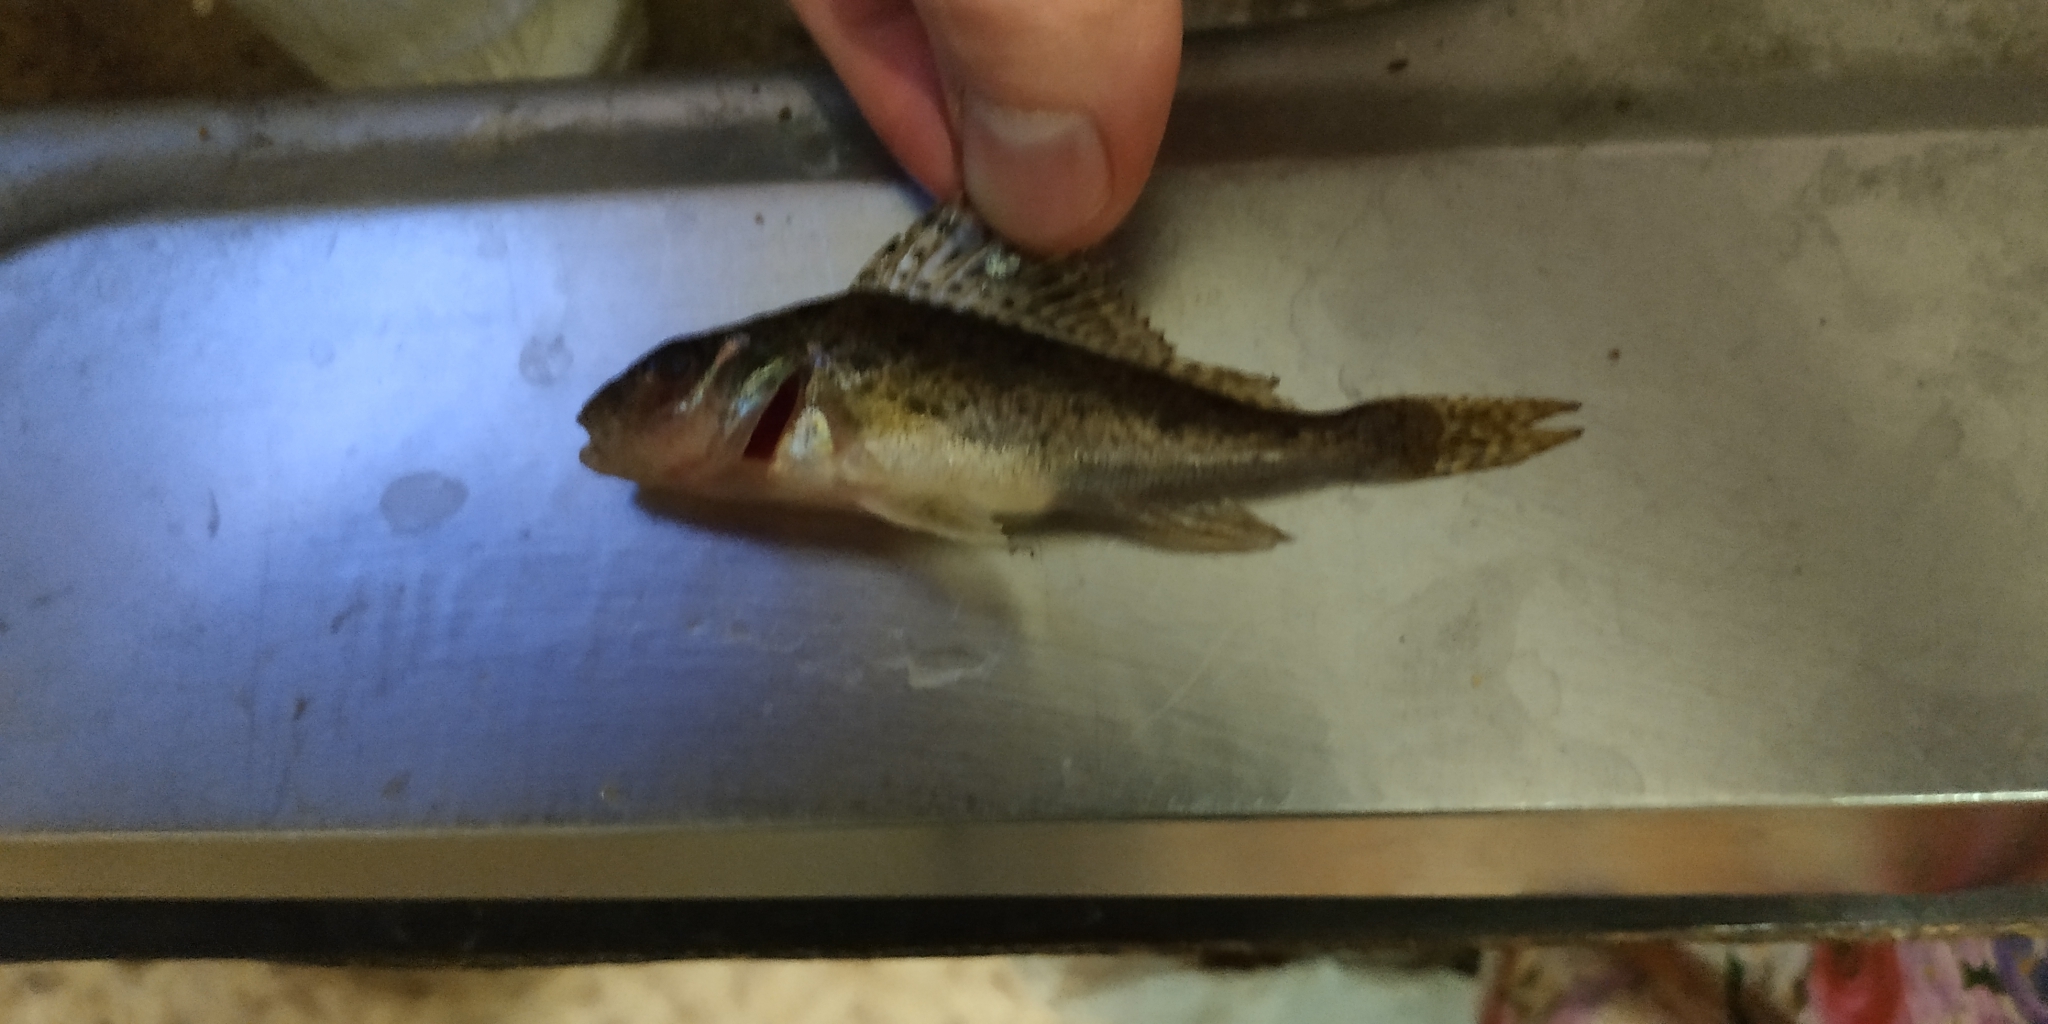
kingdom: Animalia
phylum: Chordata
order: Perciformes
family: Percidae
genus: Gymnocephalus
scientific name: Gymnocephalus cernua
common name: Ruffe
